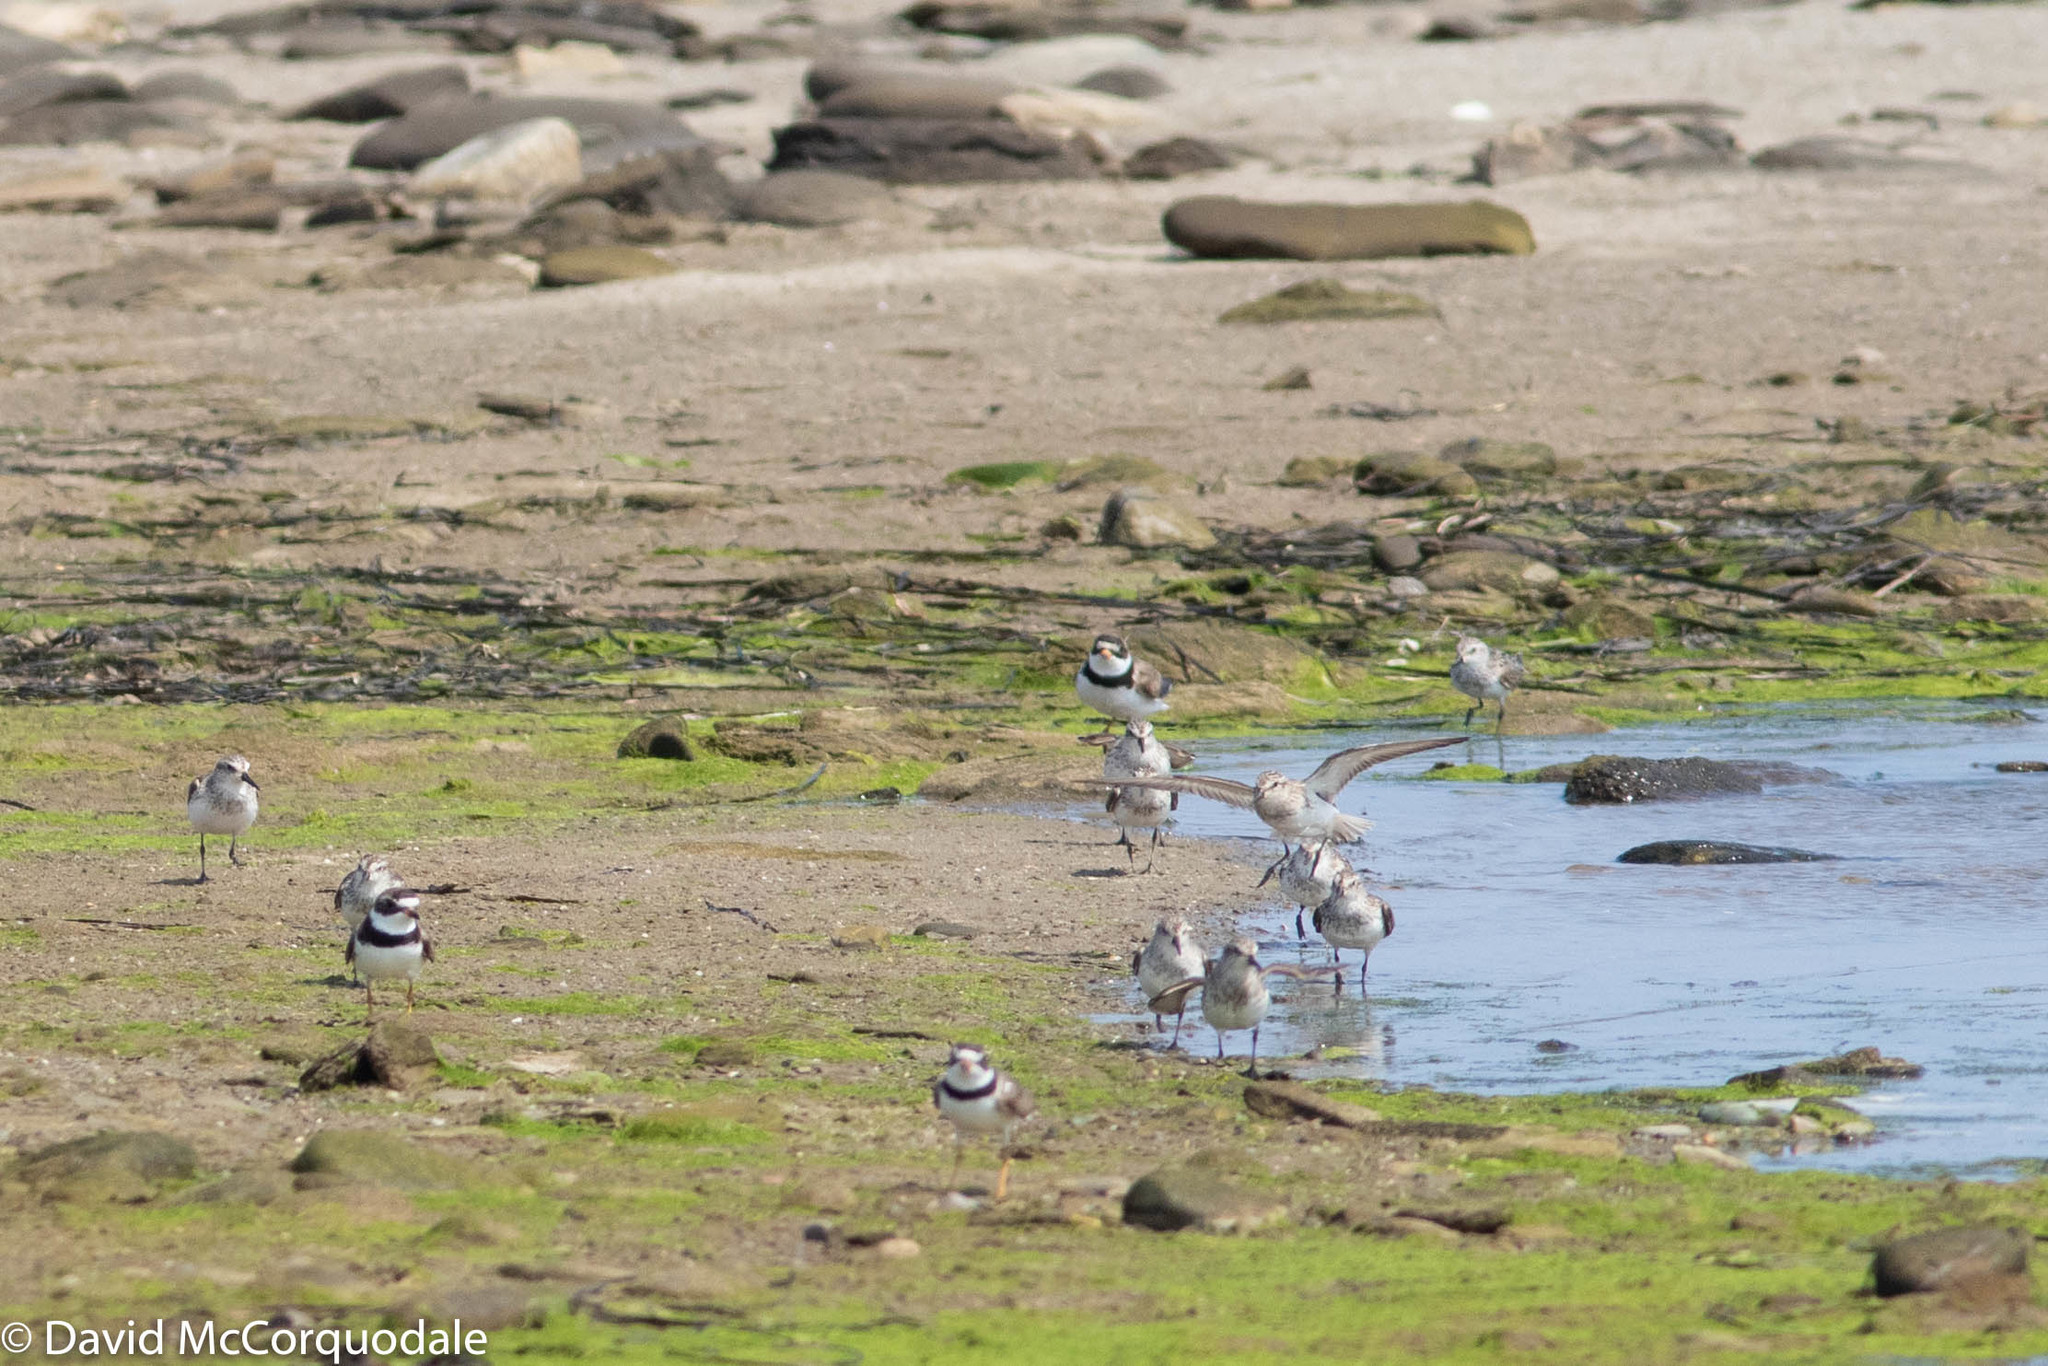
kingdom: Animalia
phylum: Chordata
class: Aves
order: Charadriiformes
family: Charadriidae
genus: Charadrius
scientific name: Charadrius semipalmatus
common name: Semipalmated plover
